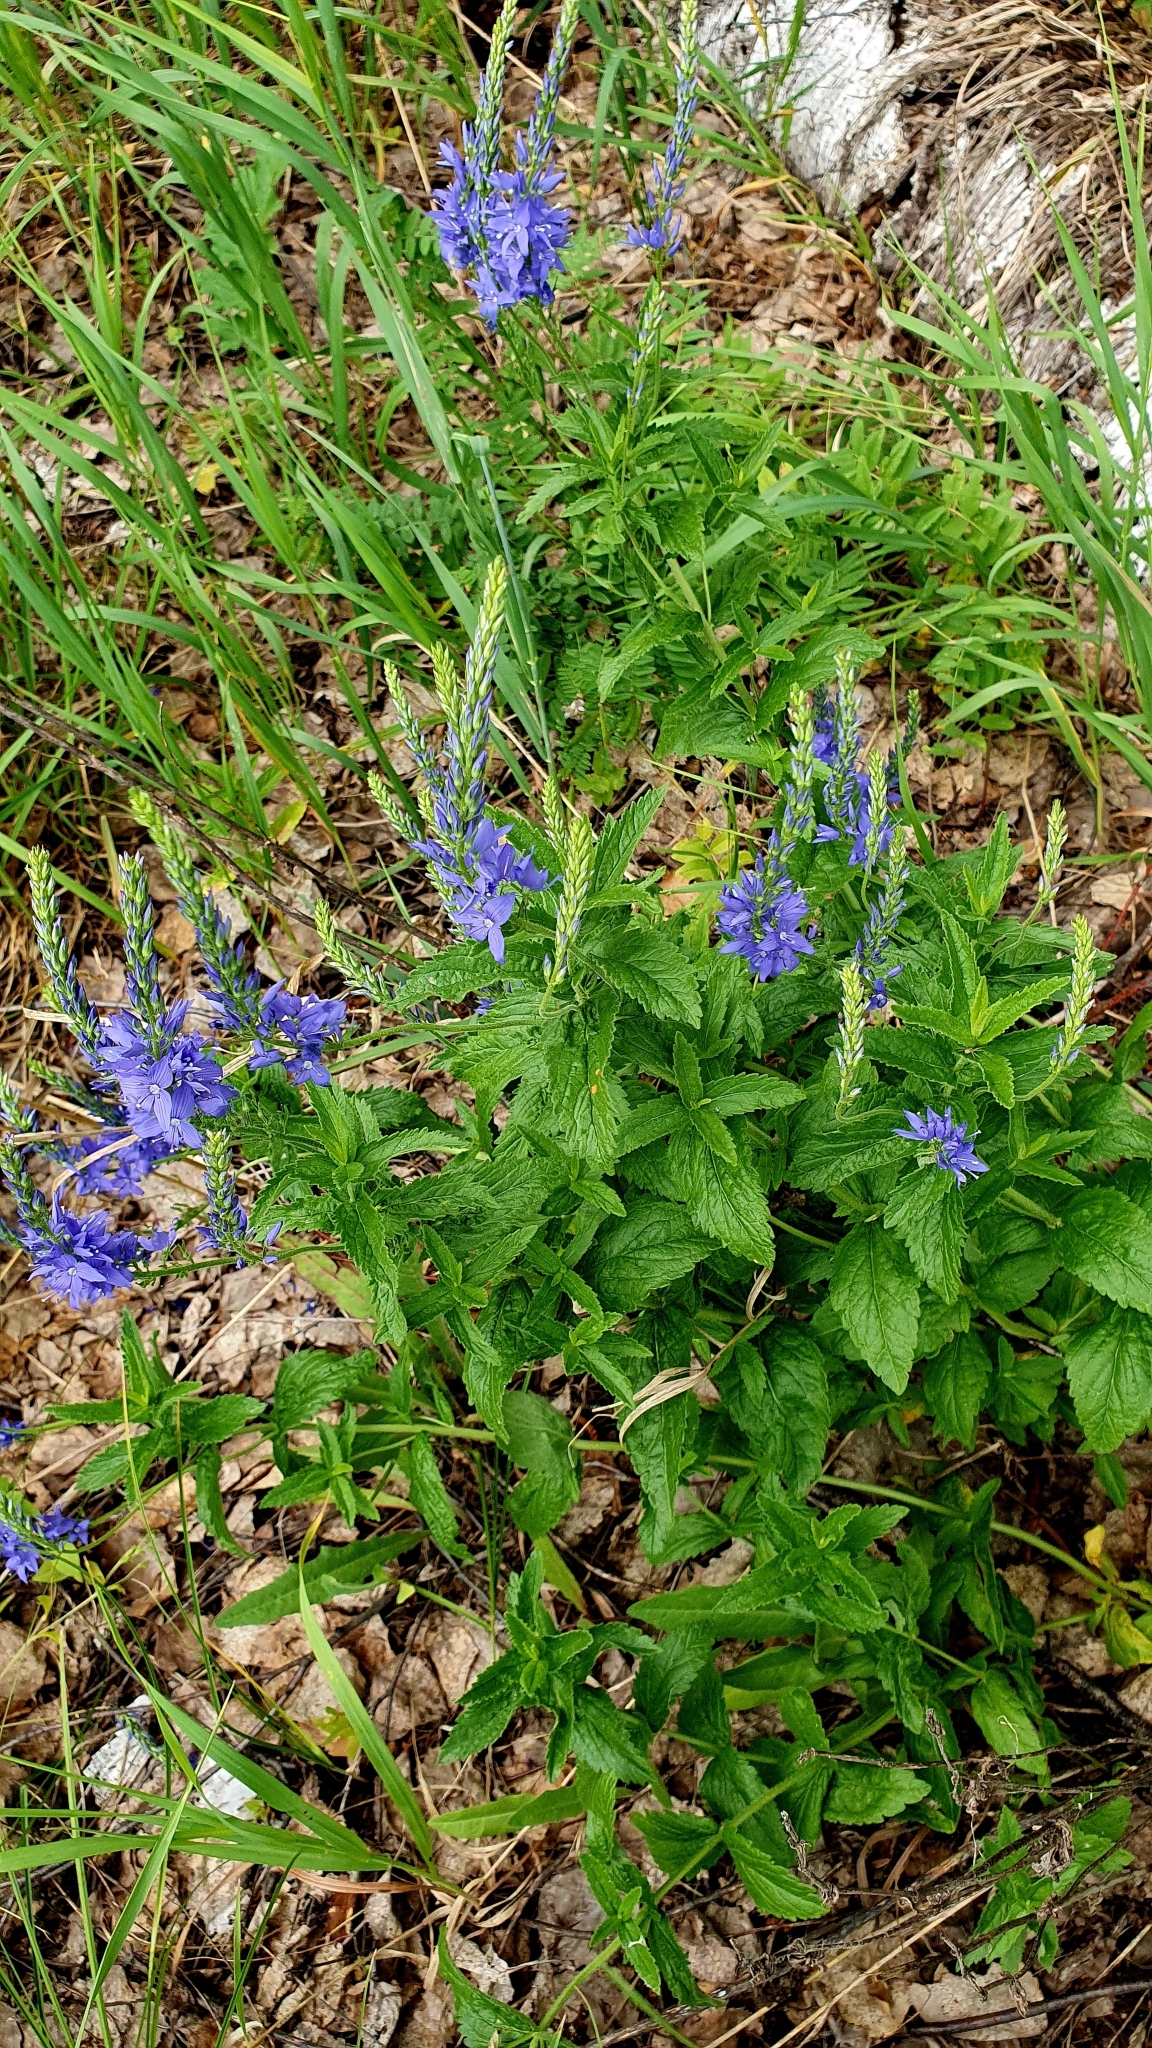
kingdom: Plantae
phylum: Tracheophyta
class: Magnoliopsida
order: Lamiales
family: Plantaginaceae
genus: Veronica
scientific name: Veronica teucrium
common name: Large speedwell
